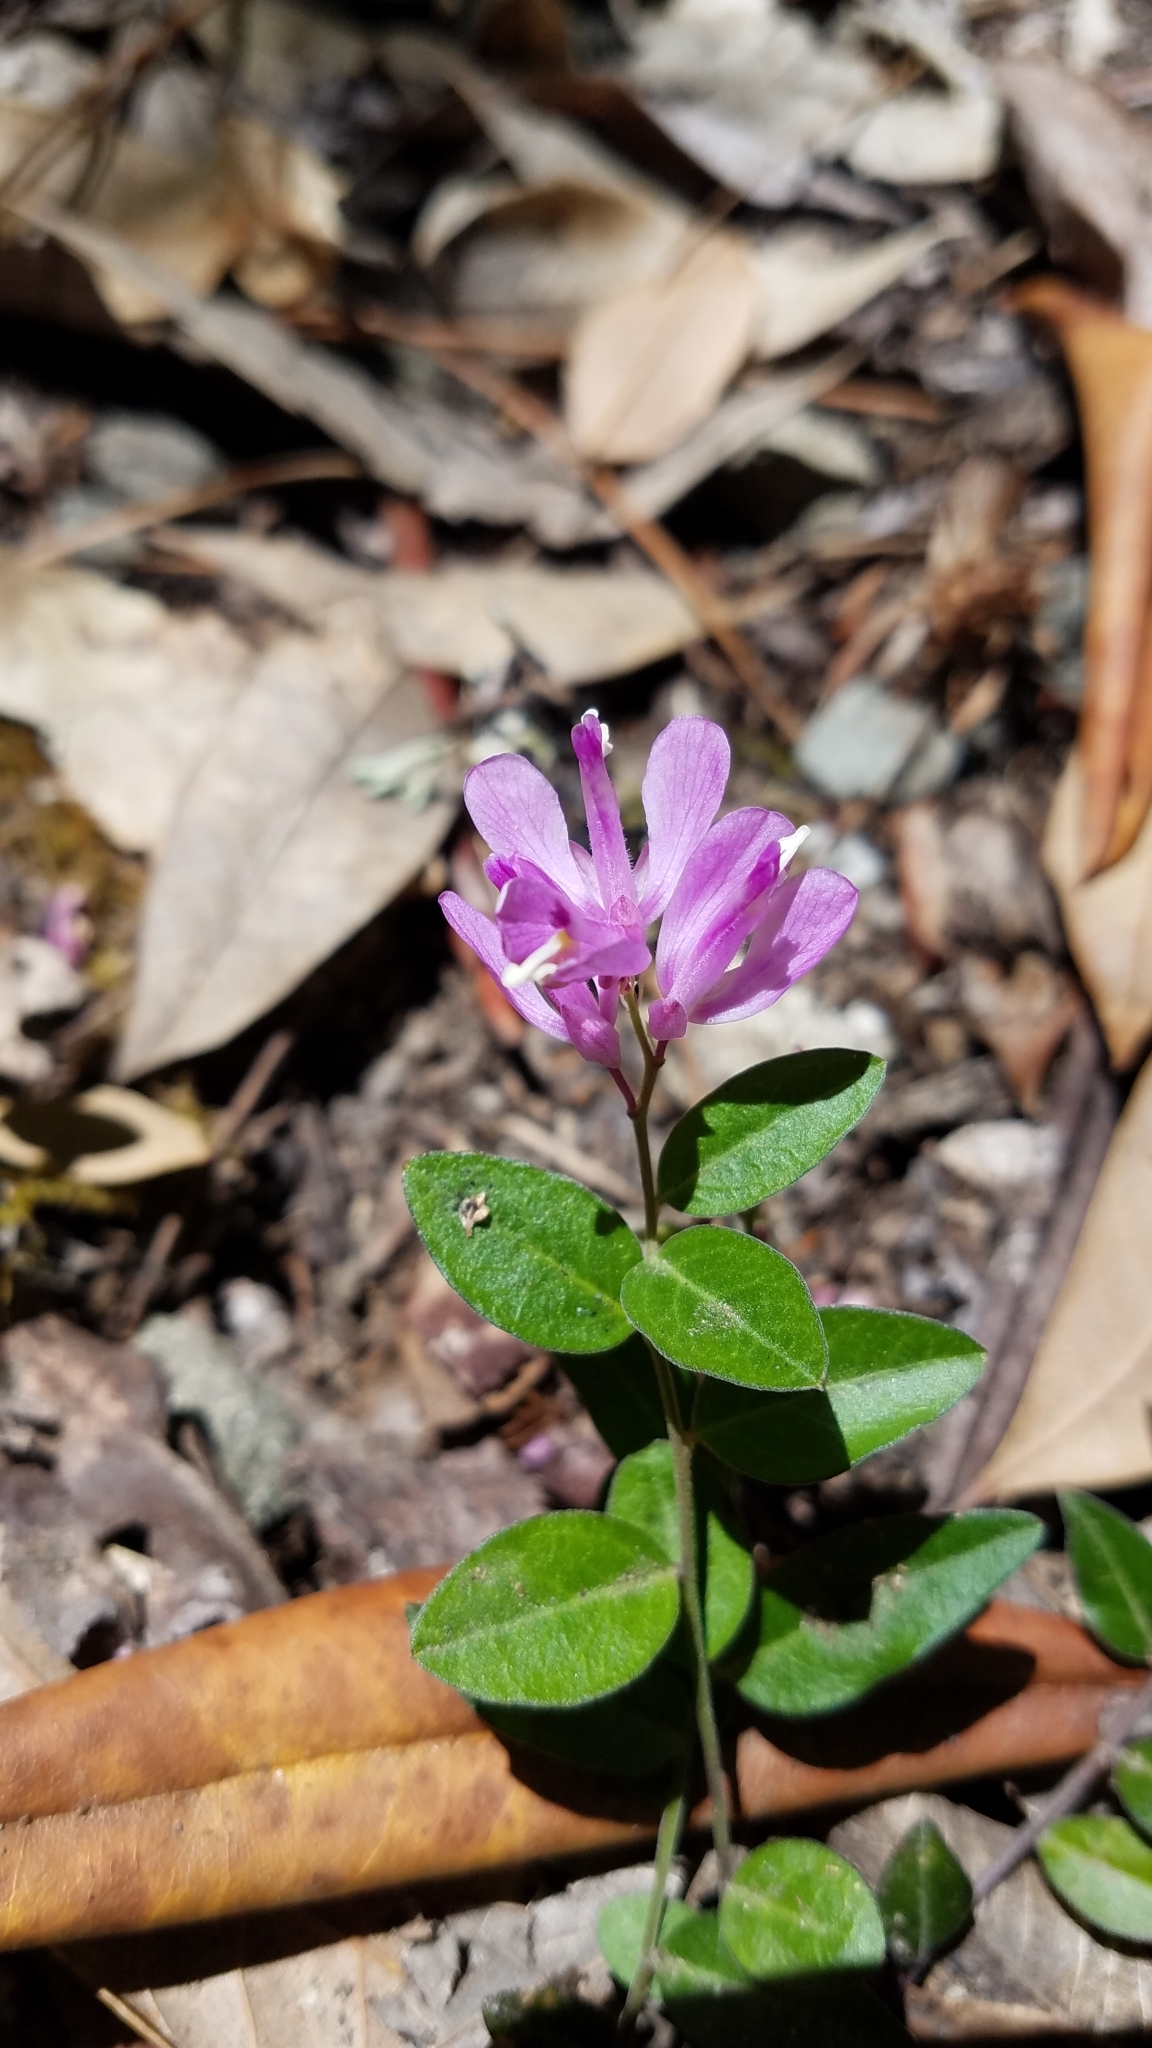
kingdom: Plantae
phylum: Tracheophyta
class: Magnoliopsida
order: Fabales
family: Polygalaceae
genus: Rhinotropis
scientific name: Rhinotropis californica
